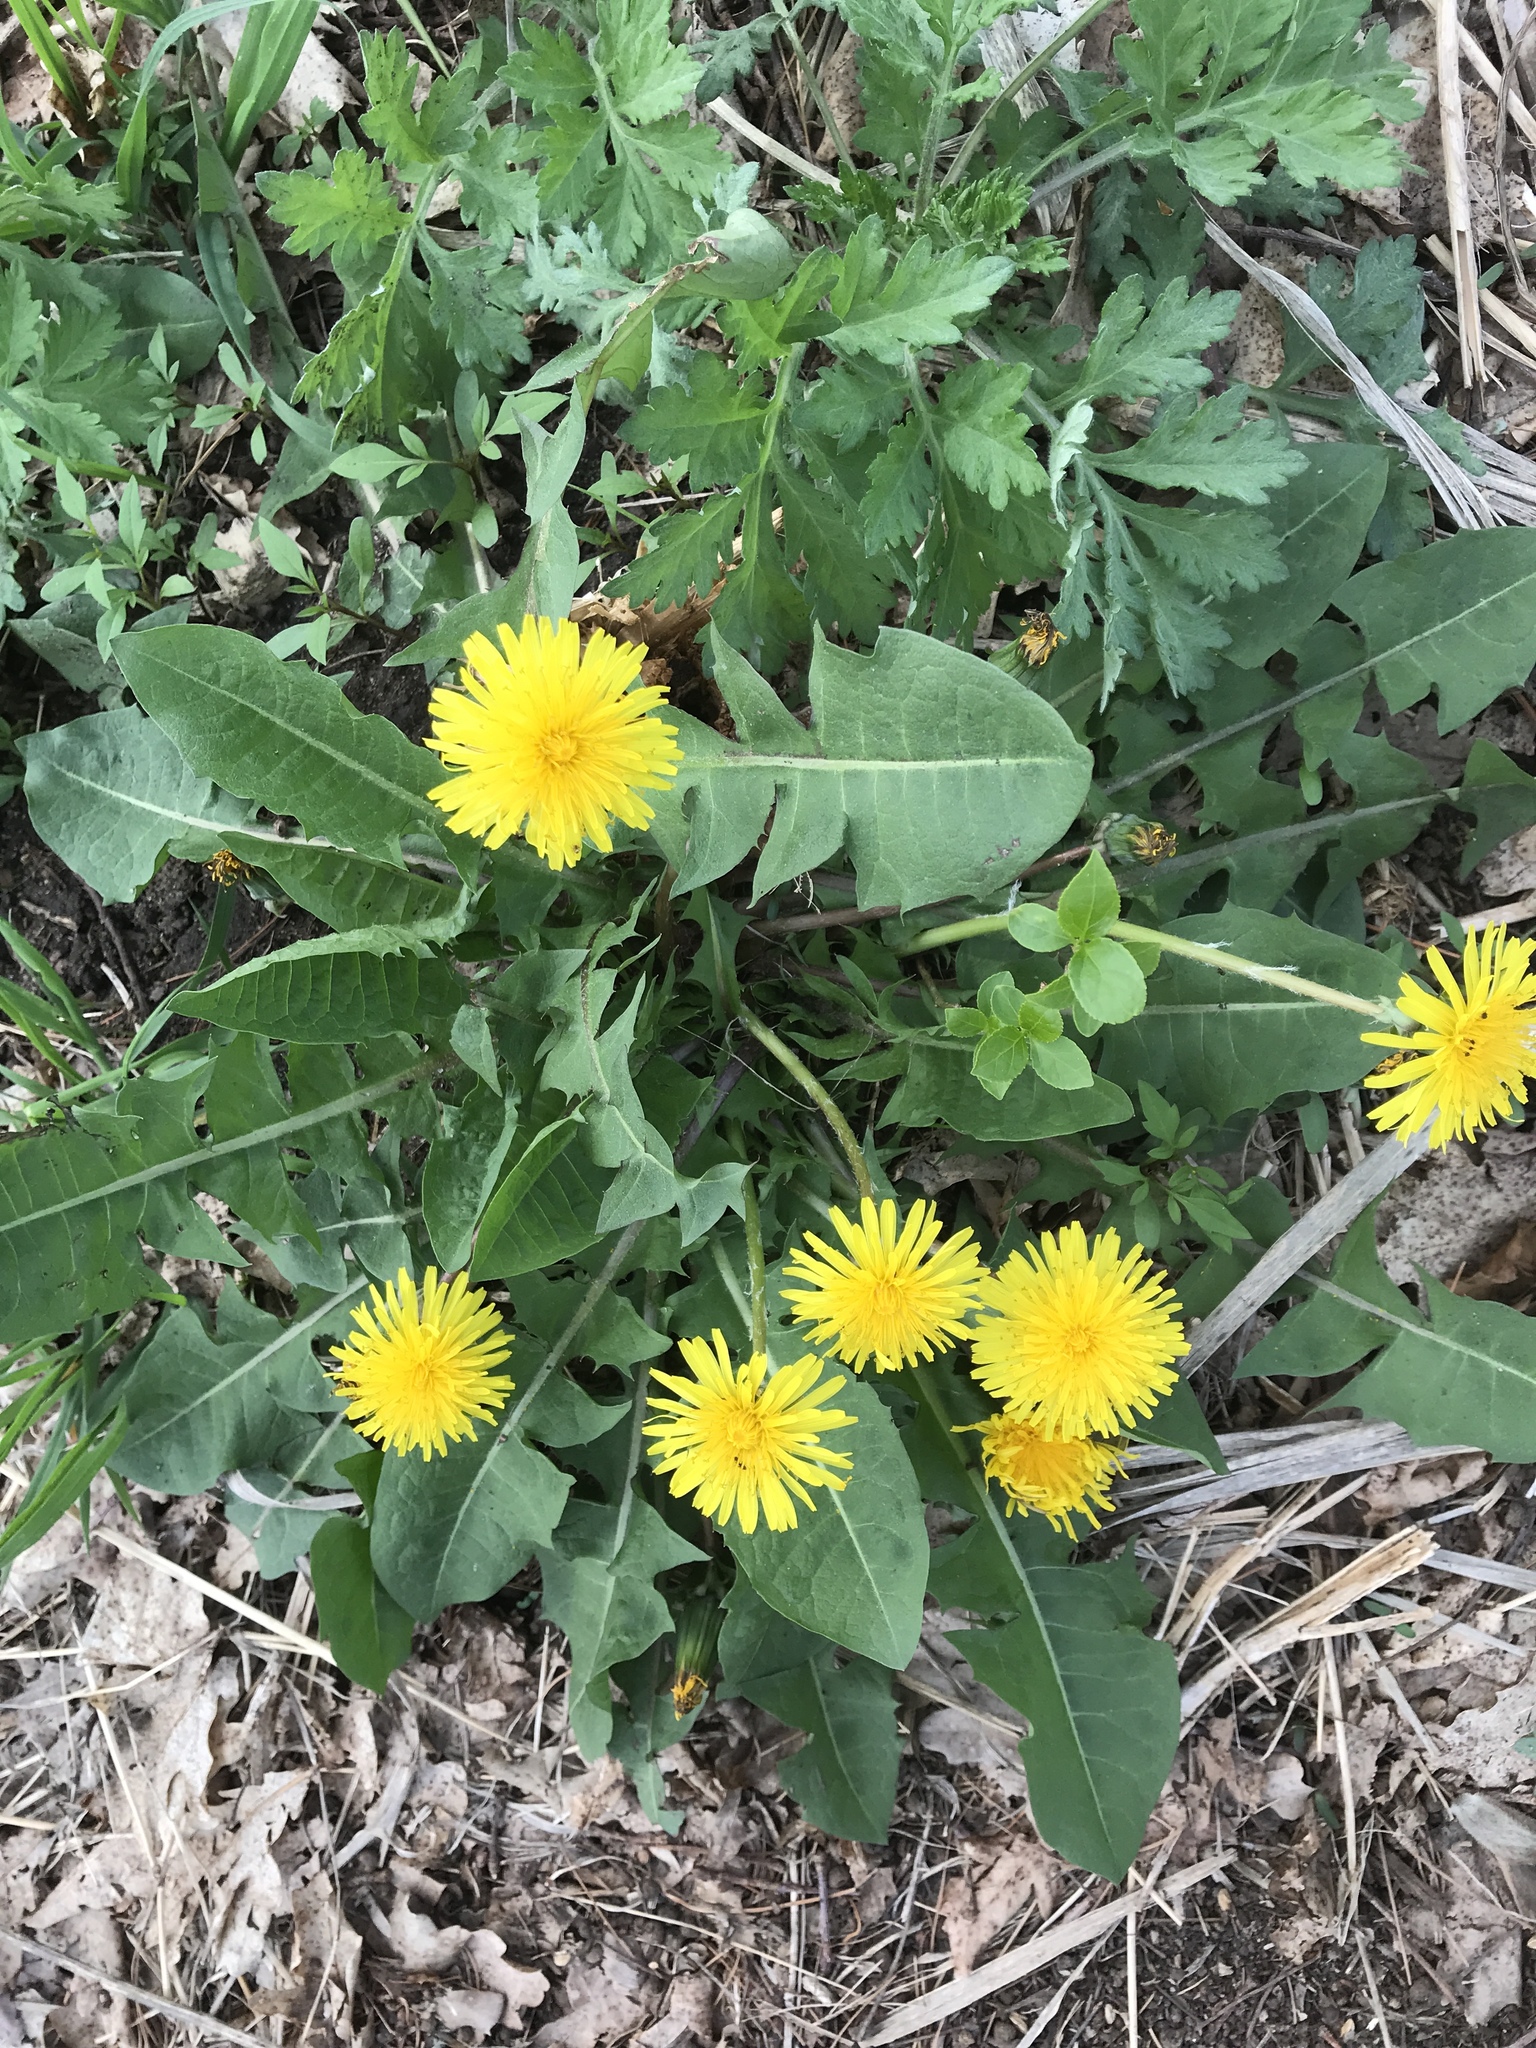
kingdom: Plantae
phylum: Tracheophyta
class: Magnoliopsida
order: Asterales
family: Asteraceae
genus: Taraxacum
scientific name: Taraxacum officinale
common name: Common dandelion
